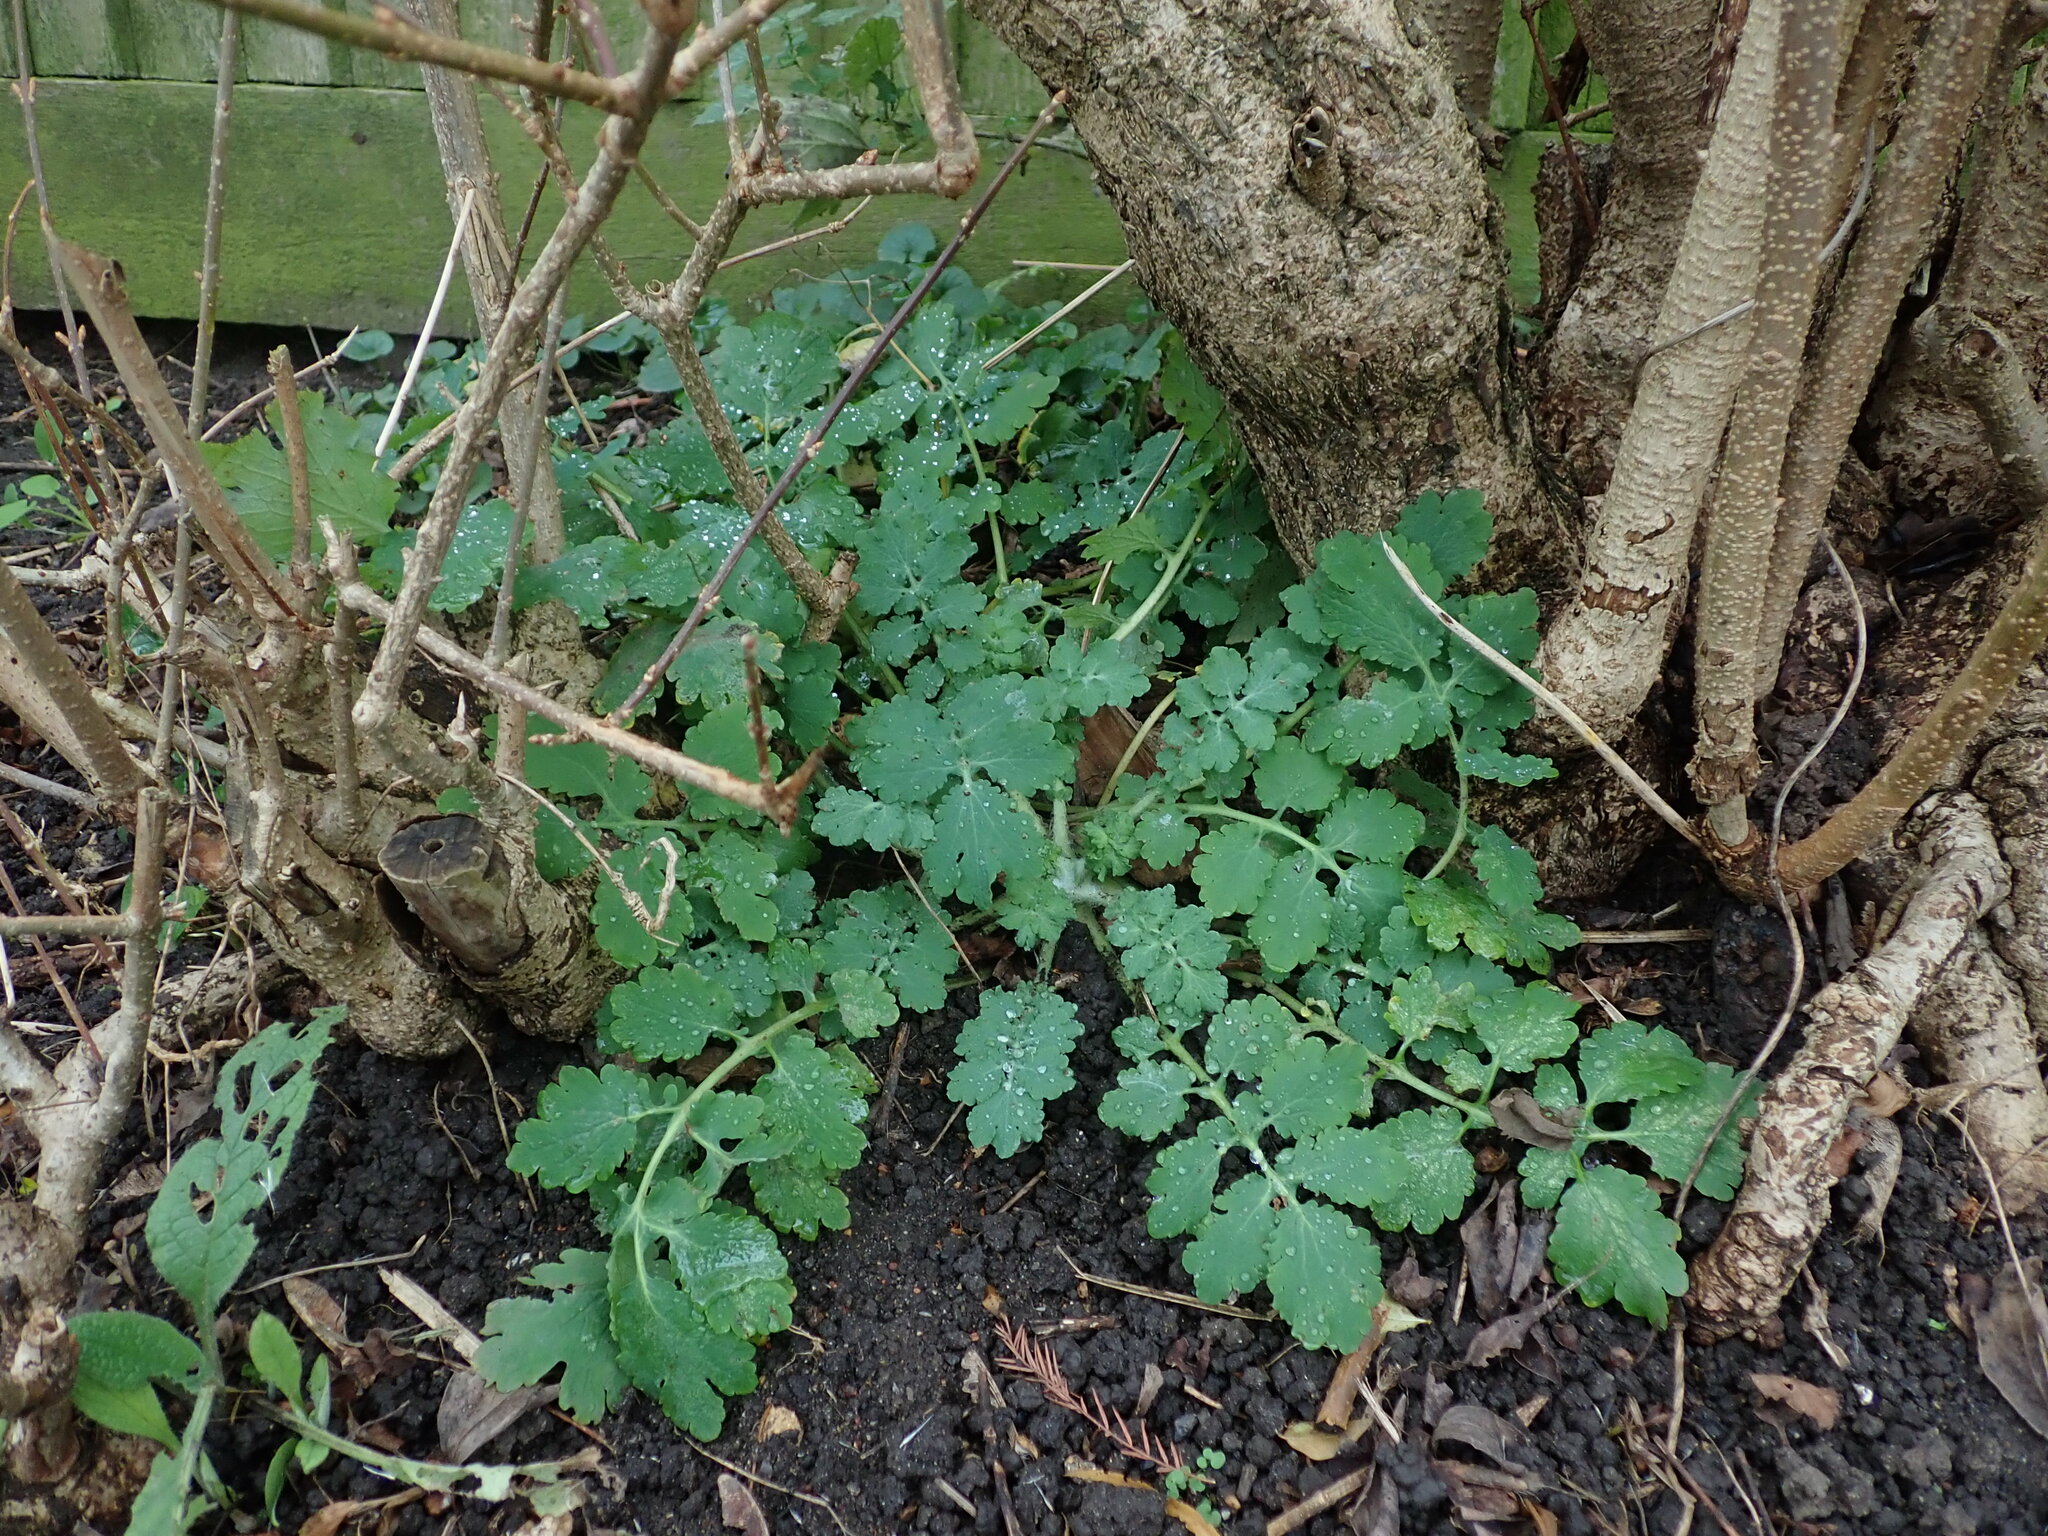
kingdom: Plantae
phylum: Tracheophyta
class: Magnoliopsida
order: Ranunculales
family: Papaveraceae
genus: Chelidonium
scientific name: Chelidonium majus
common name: Greater celandine
